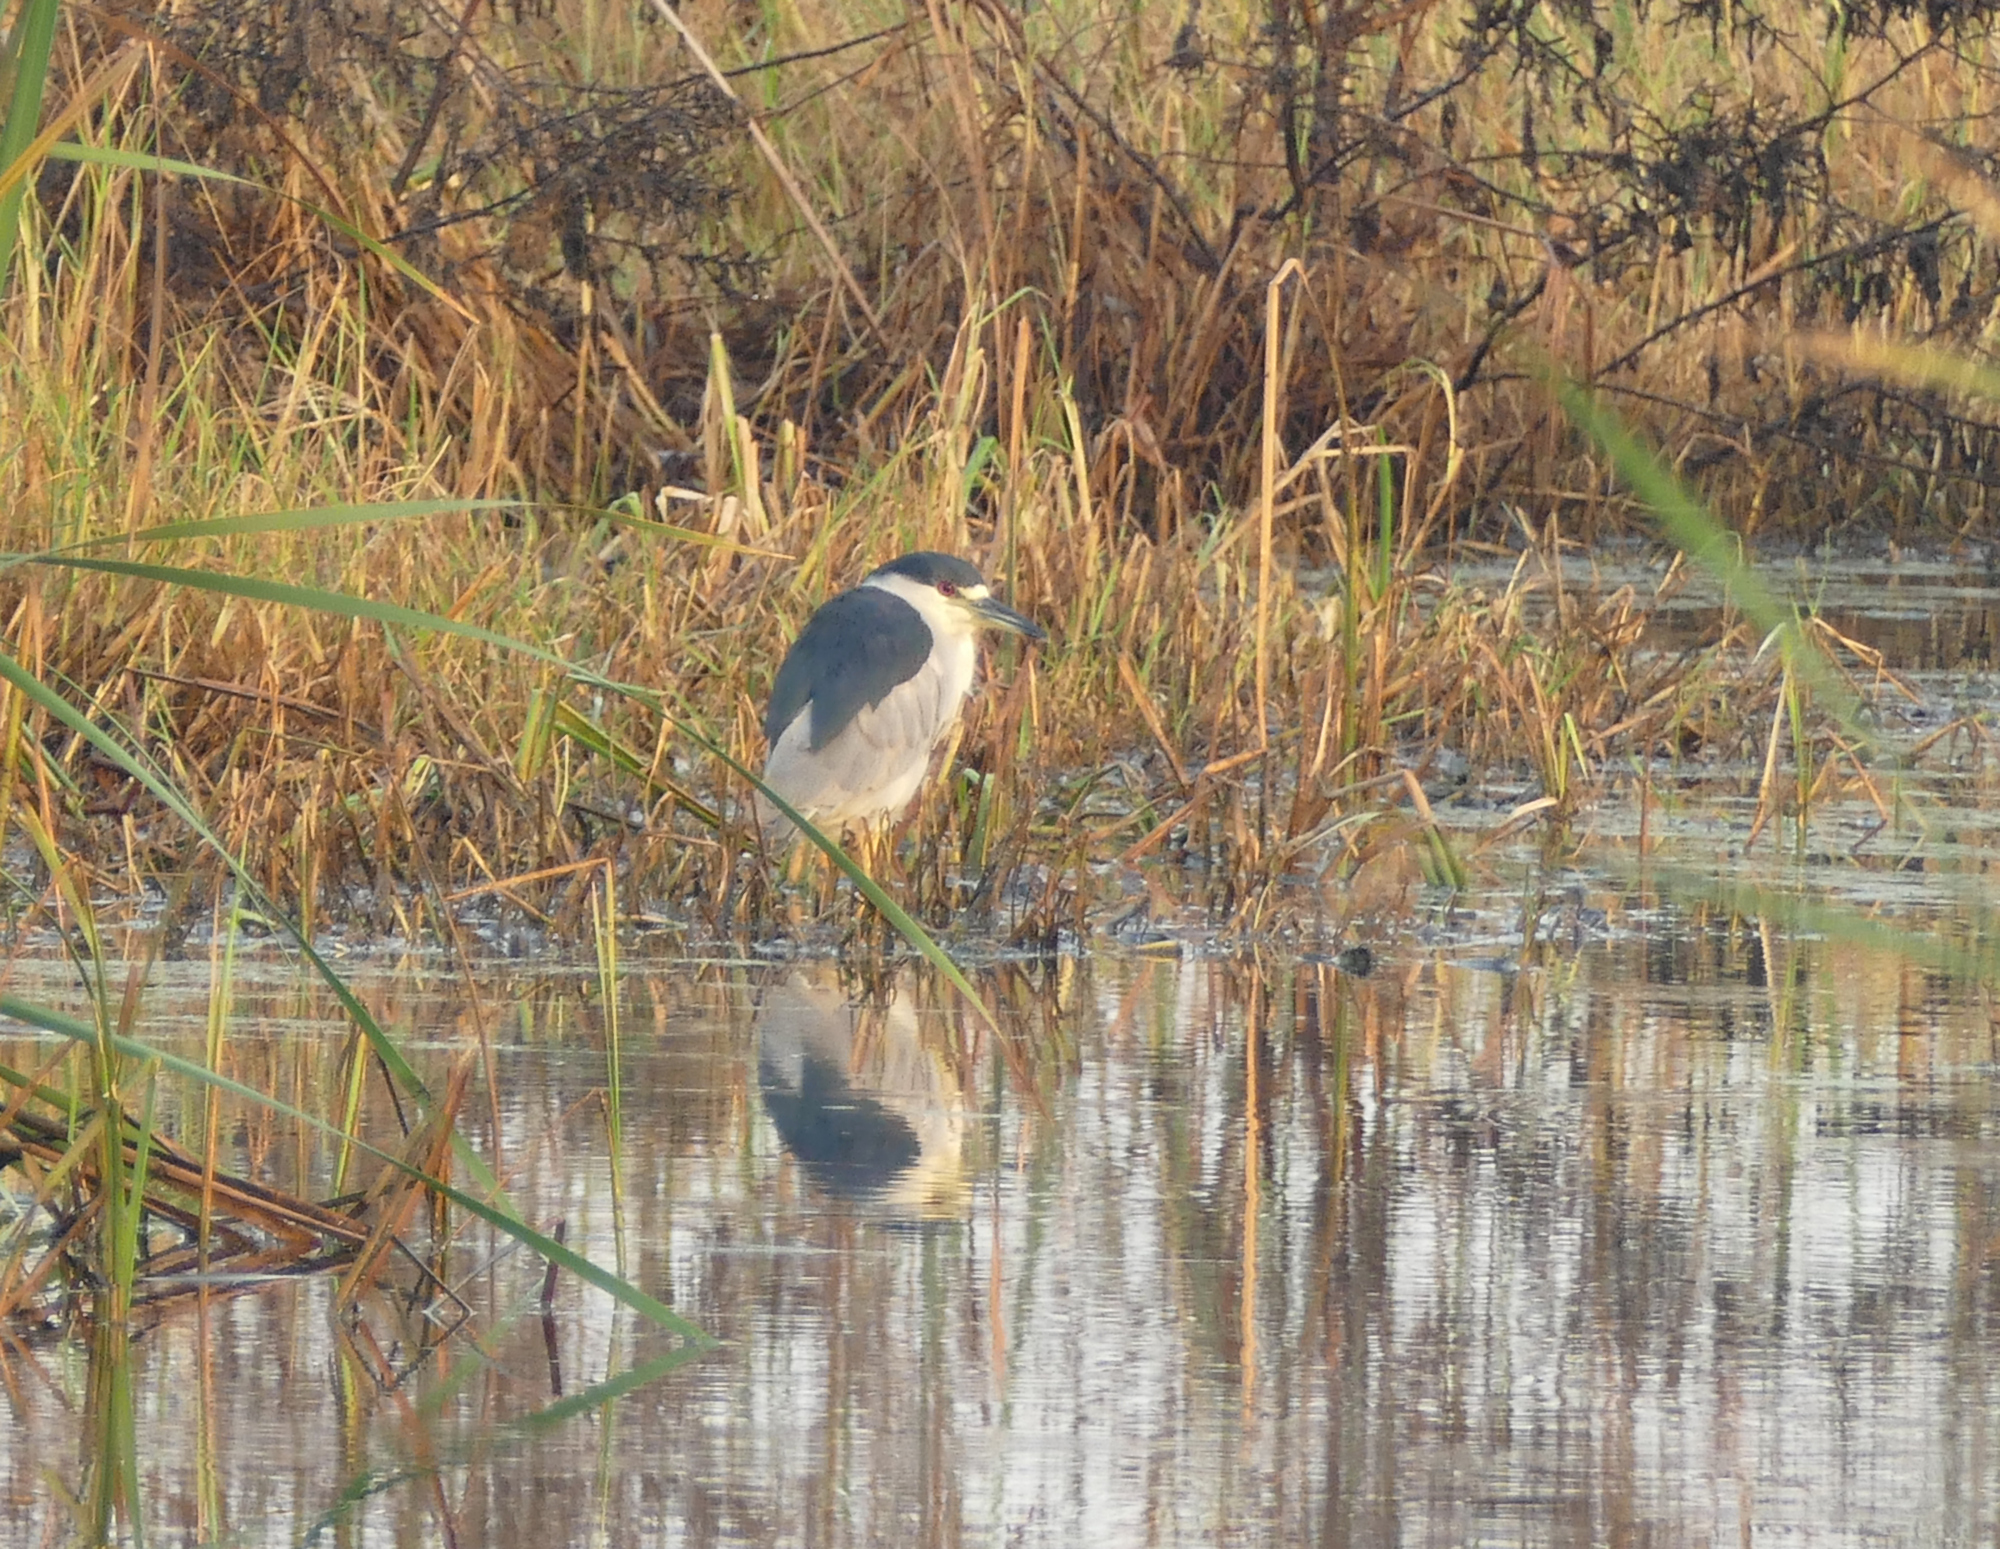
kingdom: Animalia
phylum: Chordata
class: Aves
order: Pelecaniformes
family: Ardeidae
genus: Nycticorax
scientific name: Nycticorax nycticorax
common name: Black-crowned night heron
